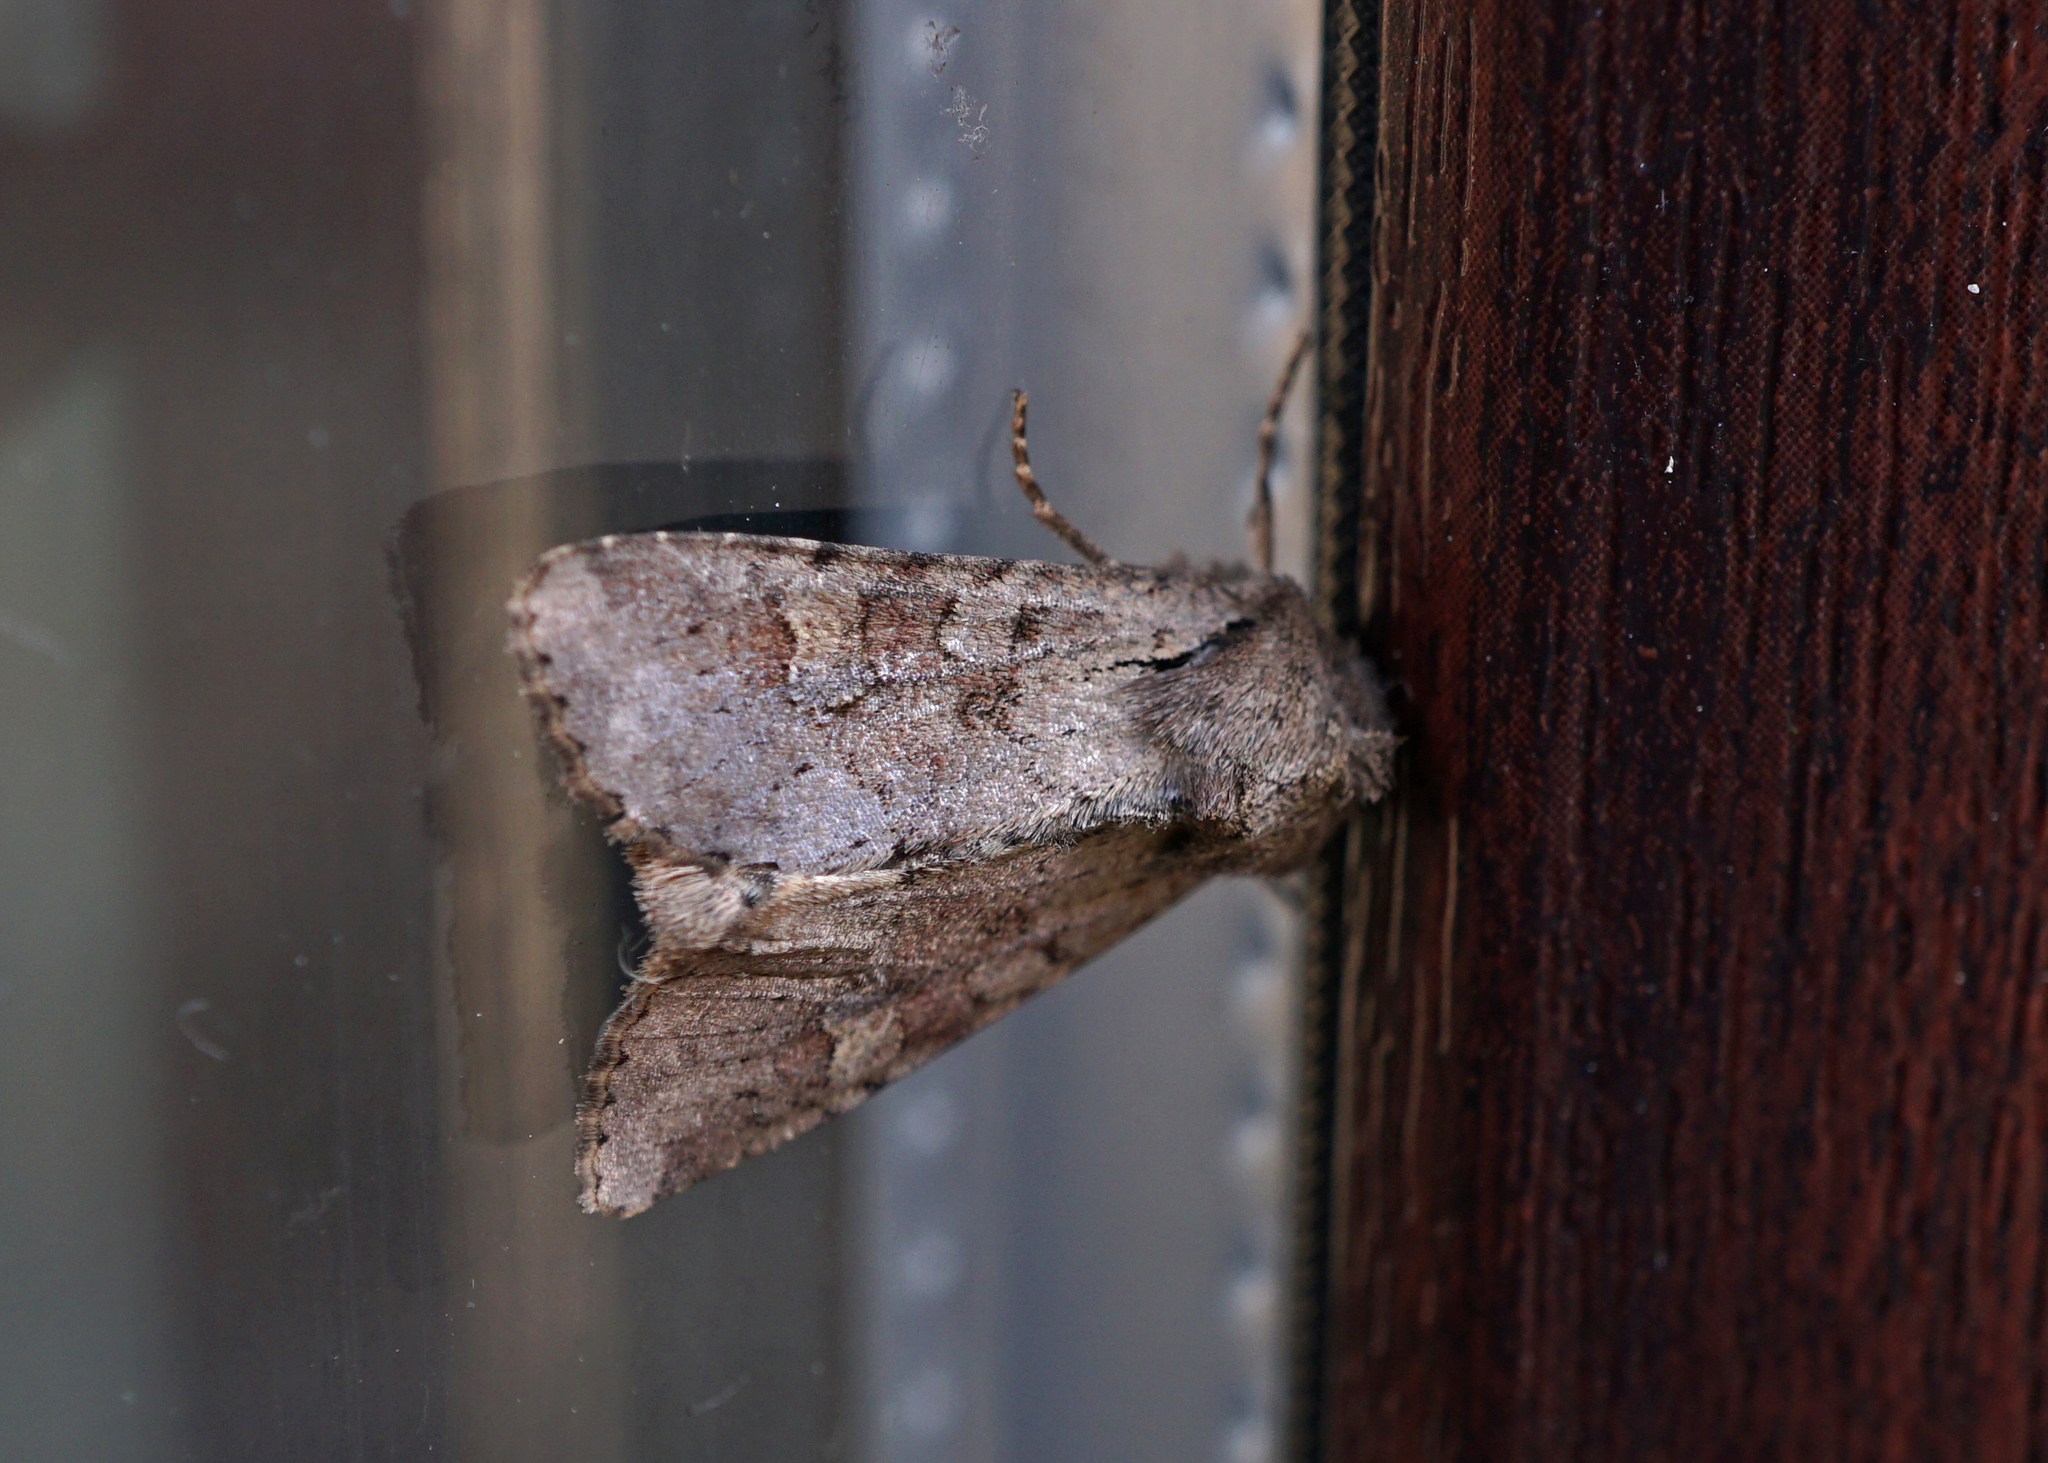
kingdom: Animalia
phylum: Arthropoda
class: Insecta
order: Lepidoptera
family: Noctuidae
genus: Apamea
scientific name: Apamea sordens
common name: Rustic shoulder-knot
